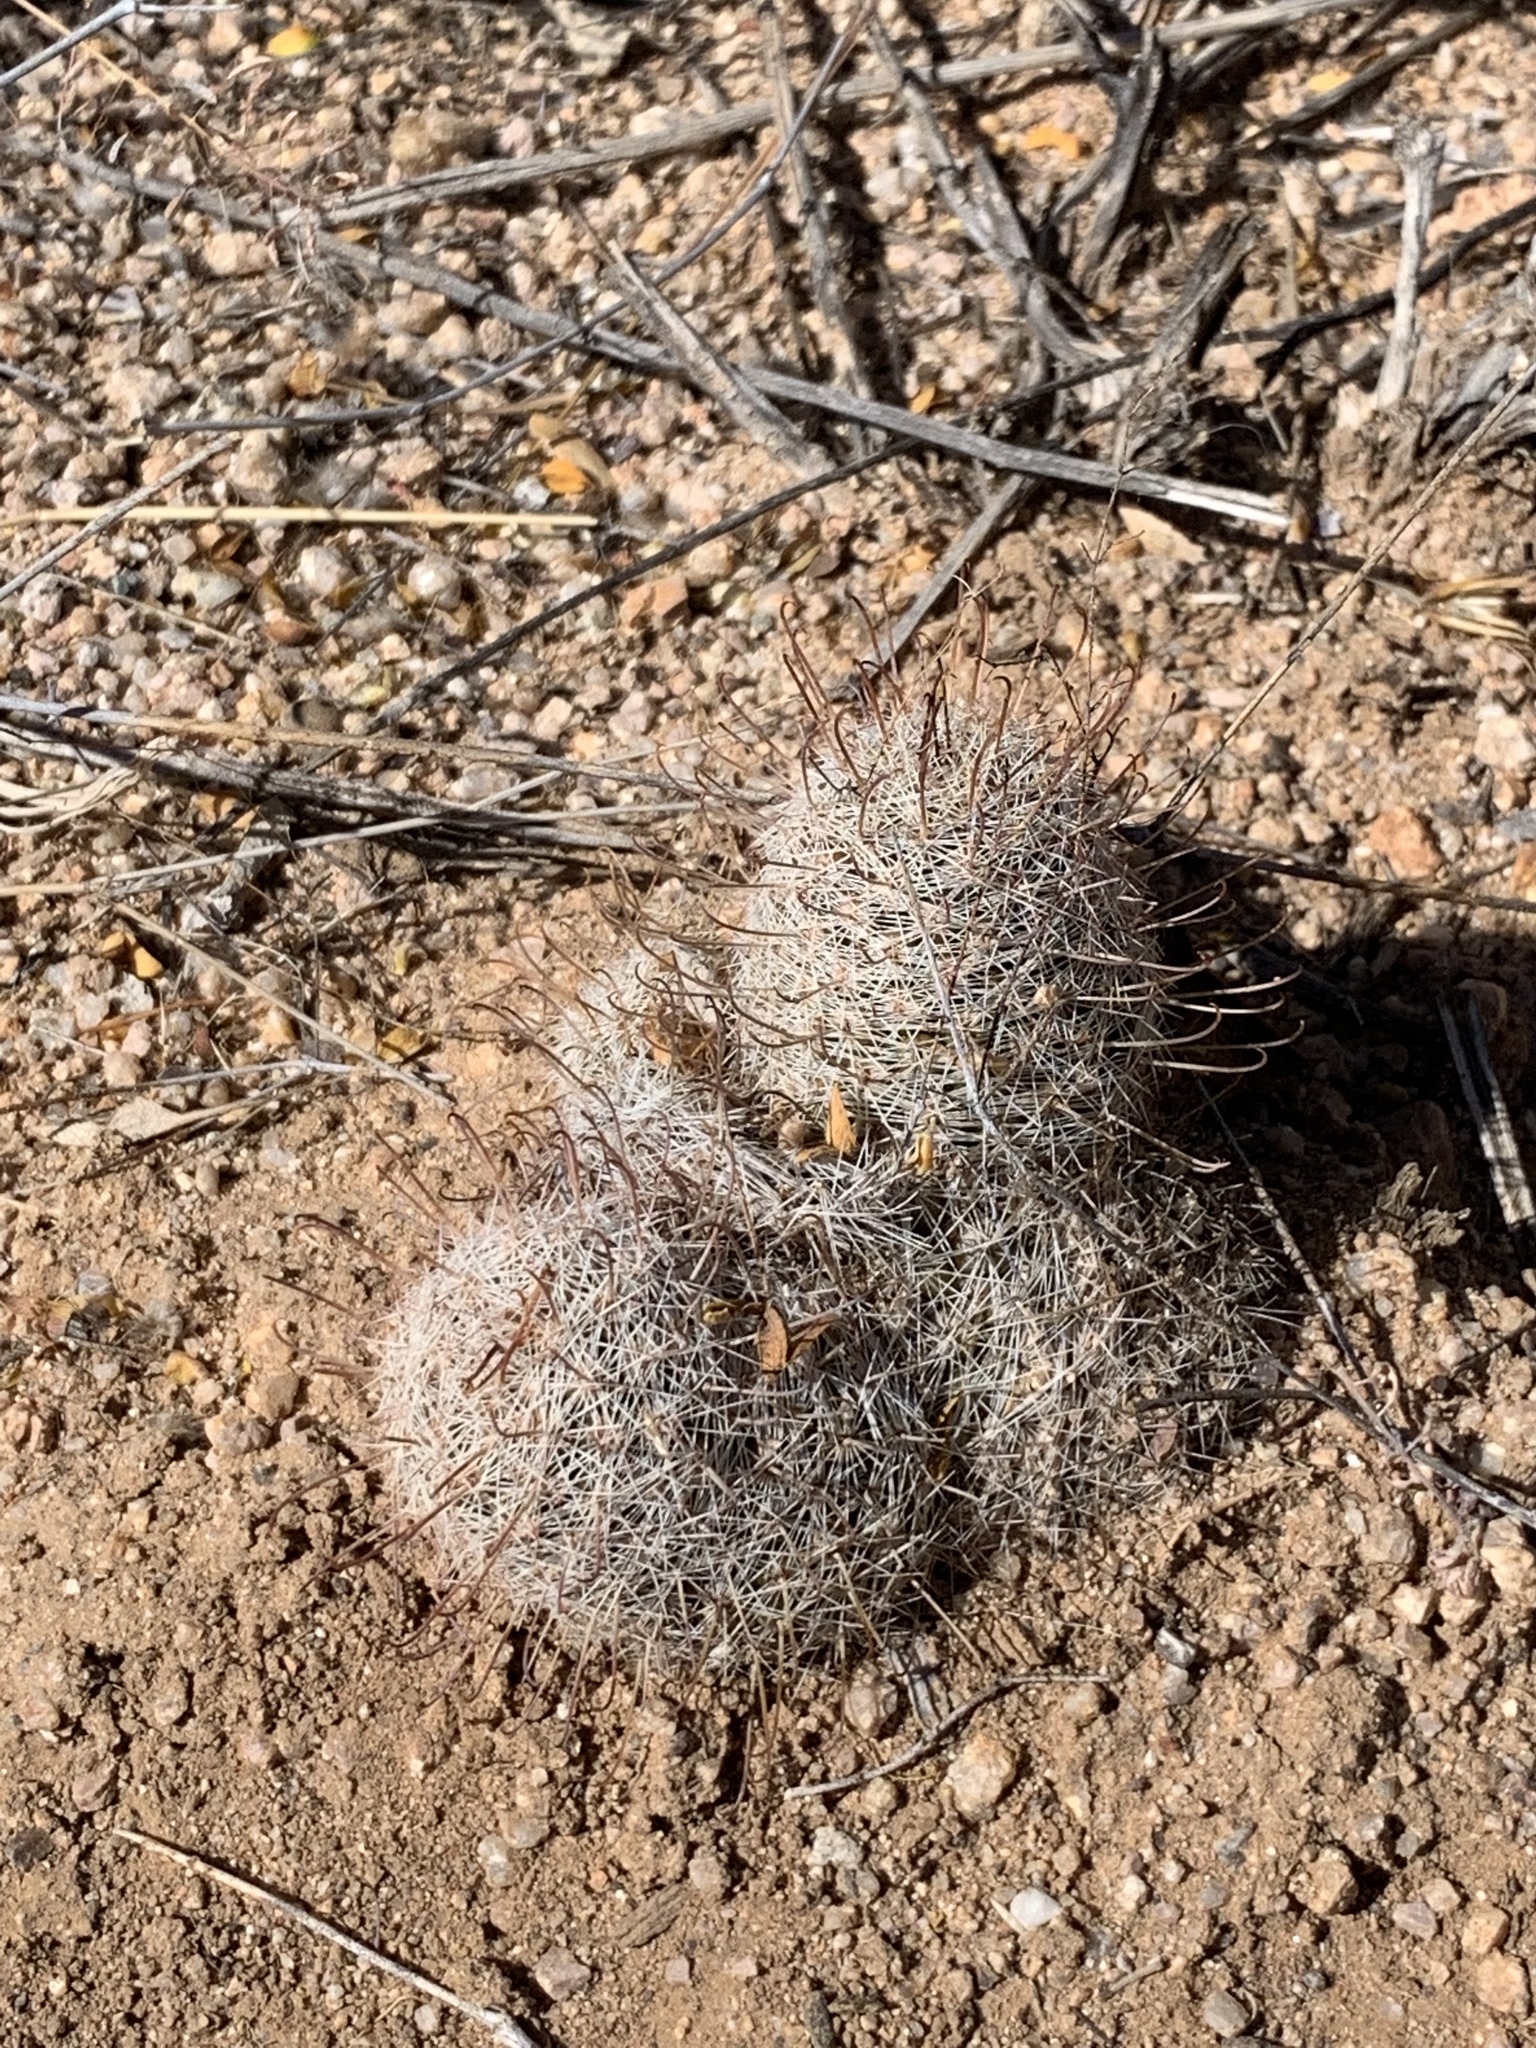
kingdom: Plantae
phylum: Tracheophyta
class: Magnoliopsida
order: Caryophyllales
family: Cactaceae
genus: Cochemiea
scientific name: Cochemiea grahamii
